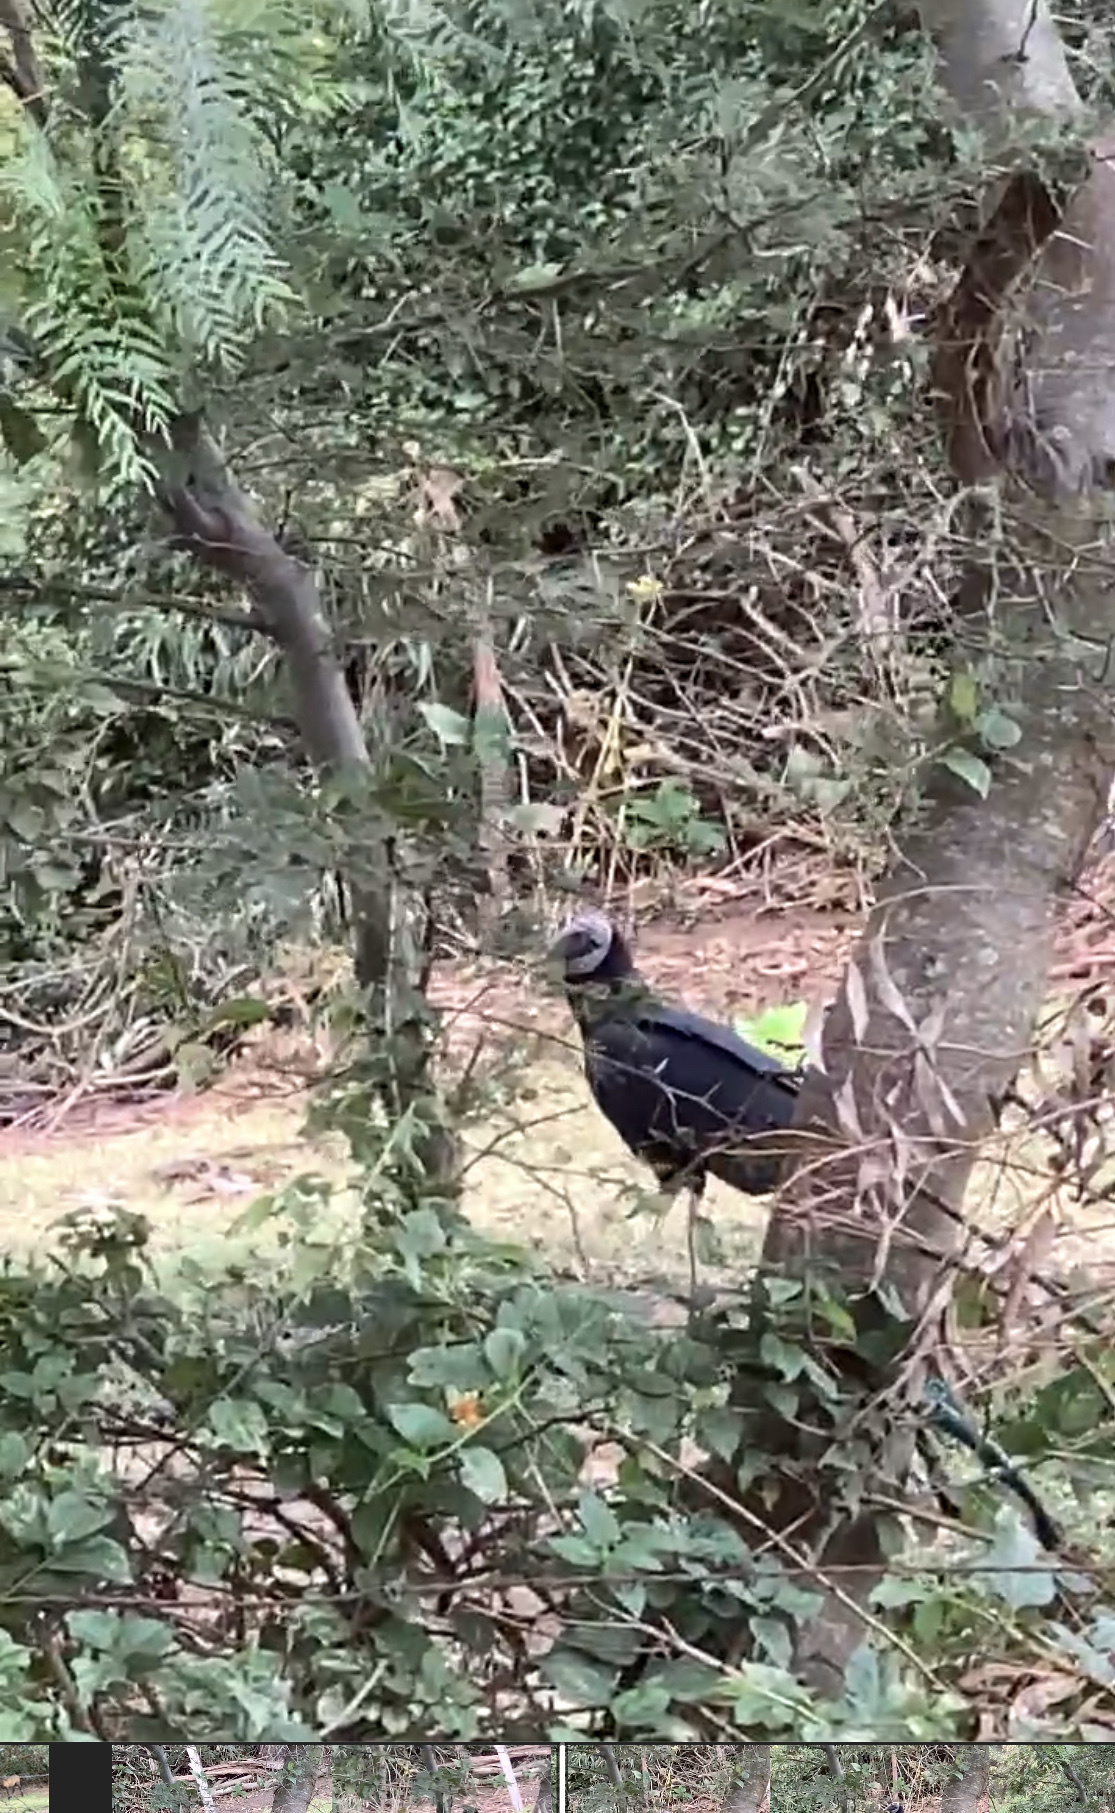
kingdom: Animalia
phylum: Chordata
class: Aves
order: Accipitriformes
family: Cathartidae
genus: Coragyps
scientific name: Coragyps atratus
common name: Black vulture
